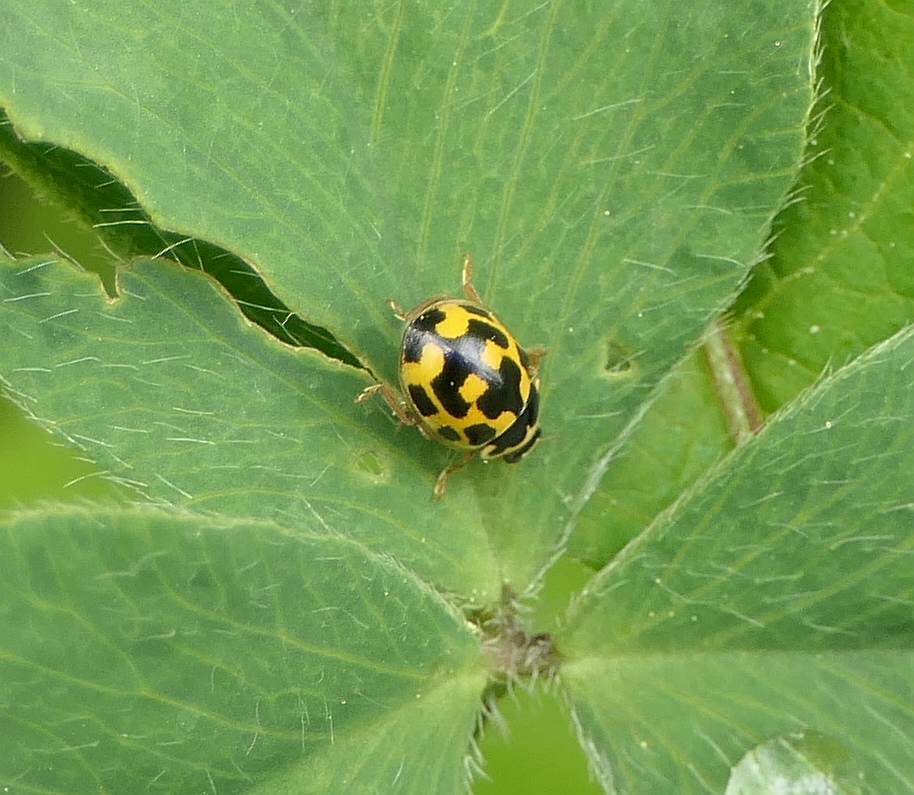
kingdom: Animalia
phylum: Arthropoda
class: Insecta
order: Coleoptera
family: Coccinellidae
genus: Propylaea
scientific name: Propylaea quatuordecimpunctata
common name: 14-spotted ladybird beetle
